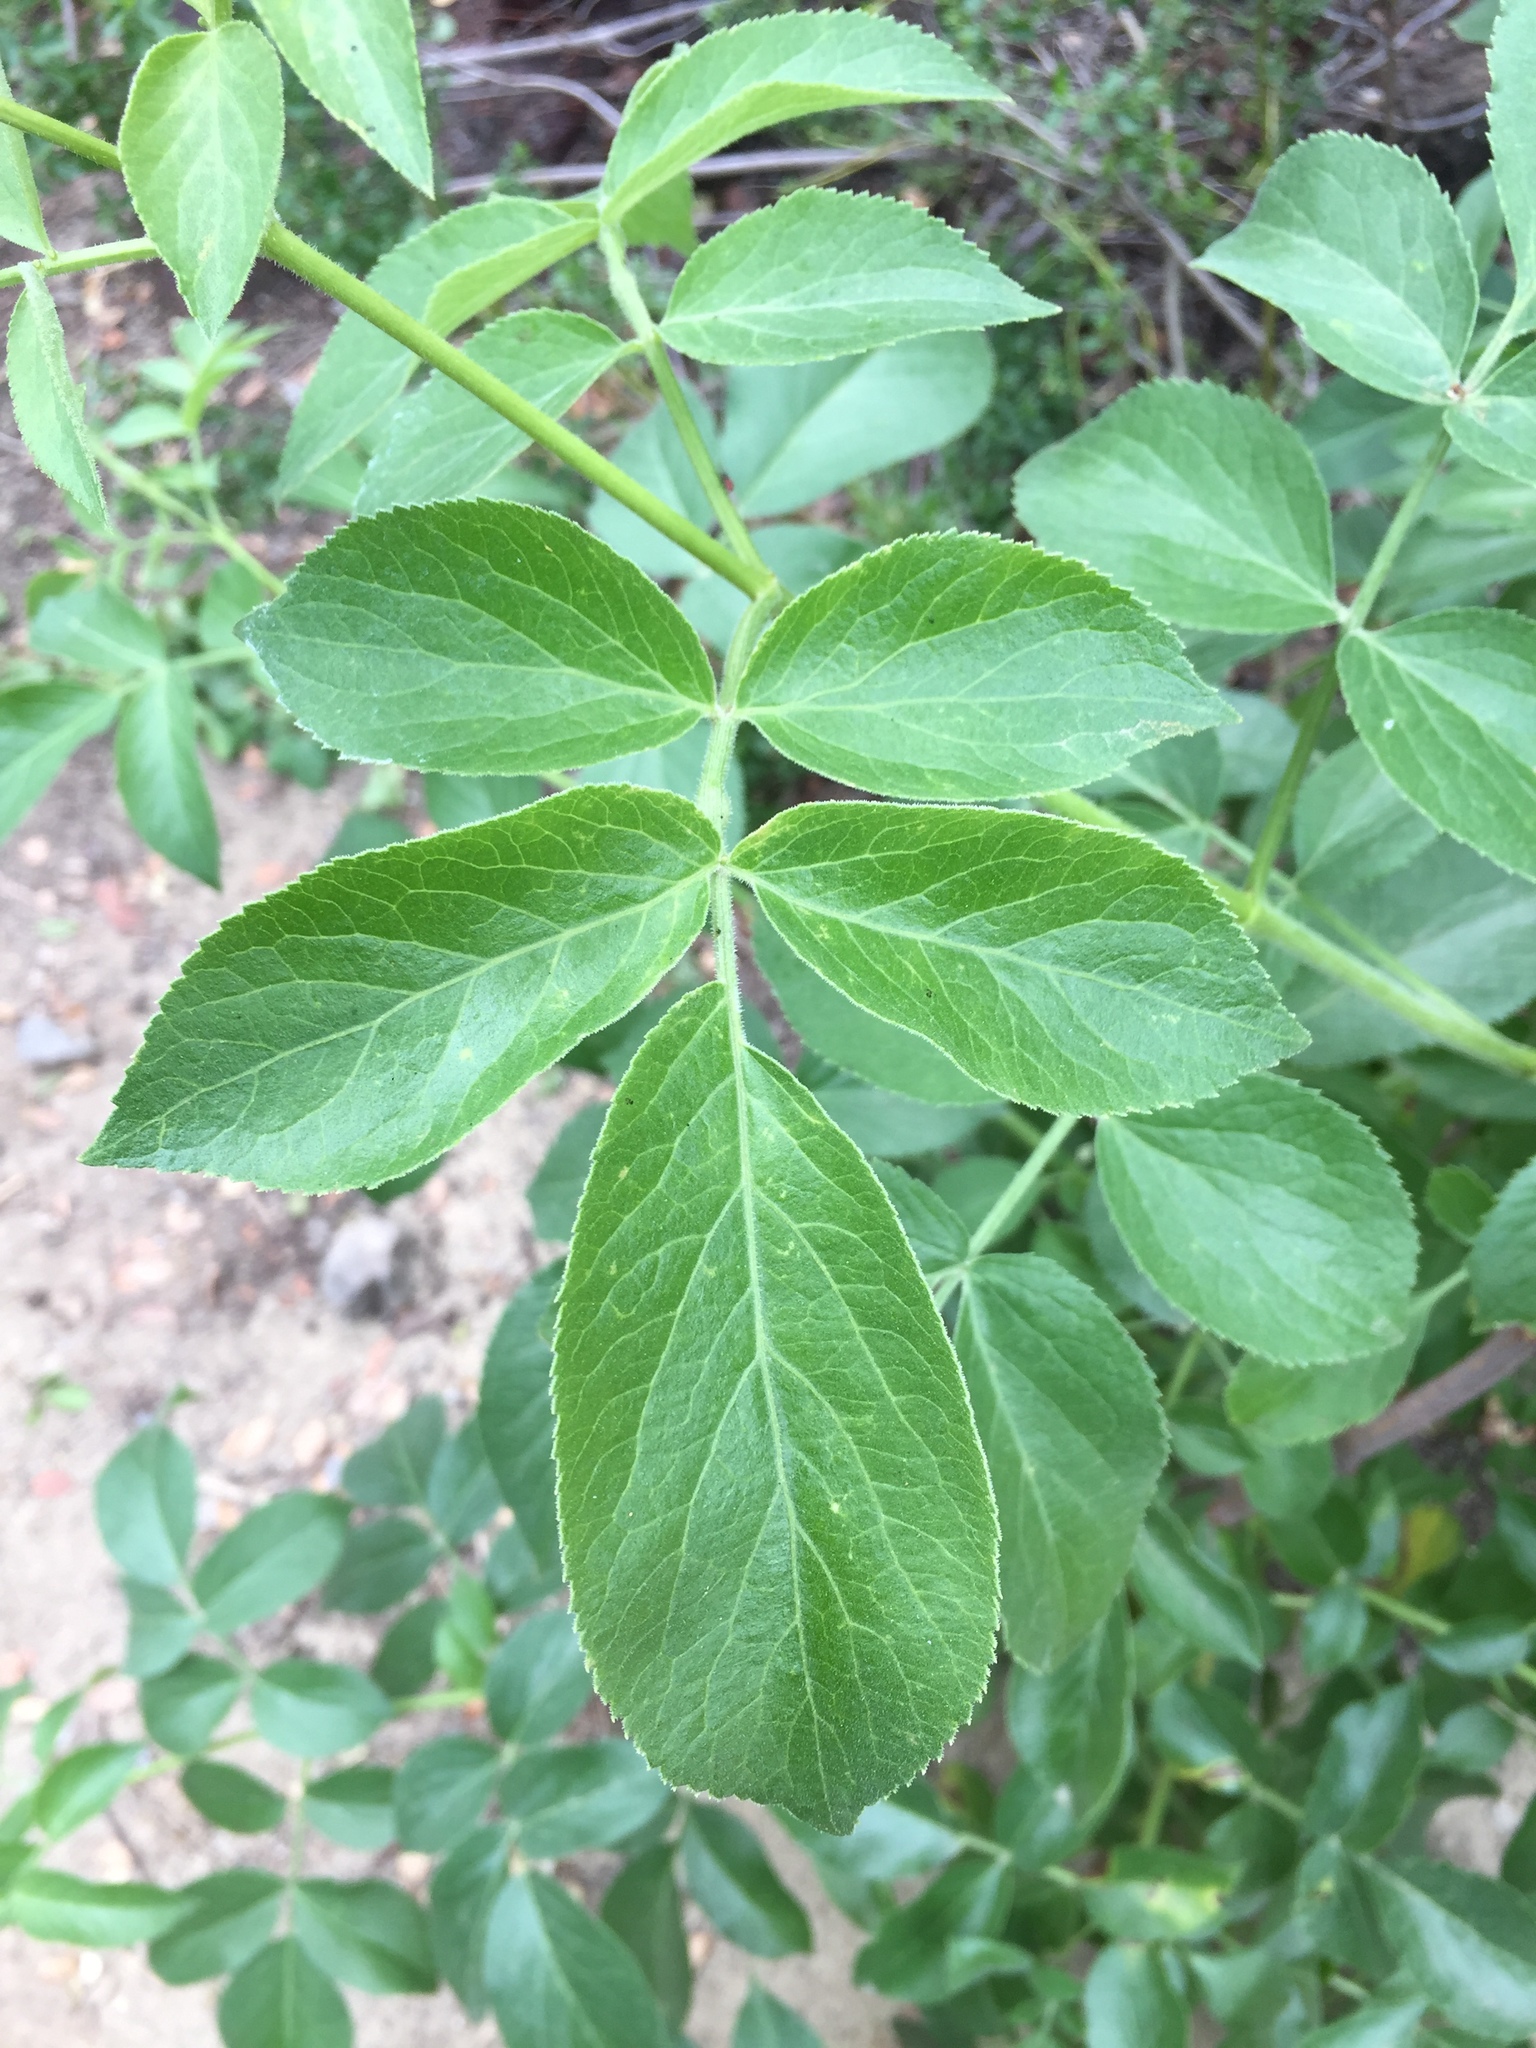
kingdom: Plantae
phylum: Tracheophyta
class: Magnoliopsida
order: Dipsacales
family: Viburnaceae
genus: Sambucus
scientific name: Sambucus cerulea
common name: Blue elder
